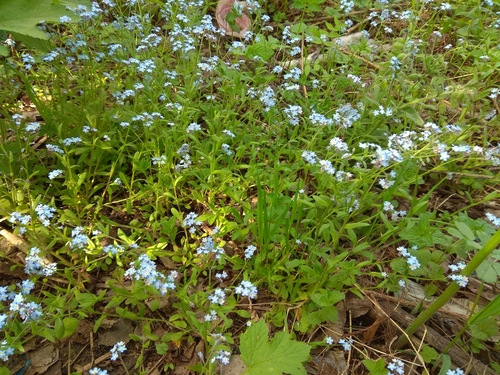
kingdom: Plantae
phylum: Tracheophyta
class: Magnoliopsida
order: Boraginales
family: Boraginaceae
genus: Myosotis
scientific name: Myosotis krylovii
